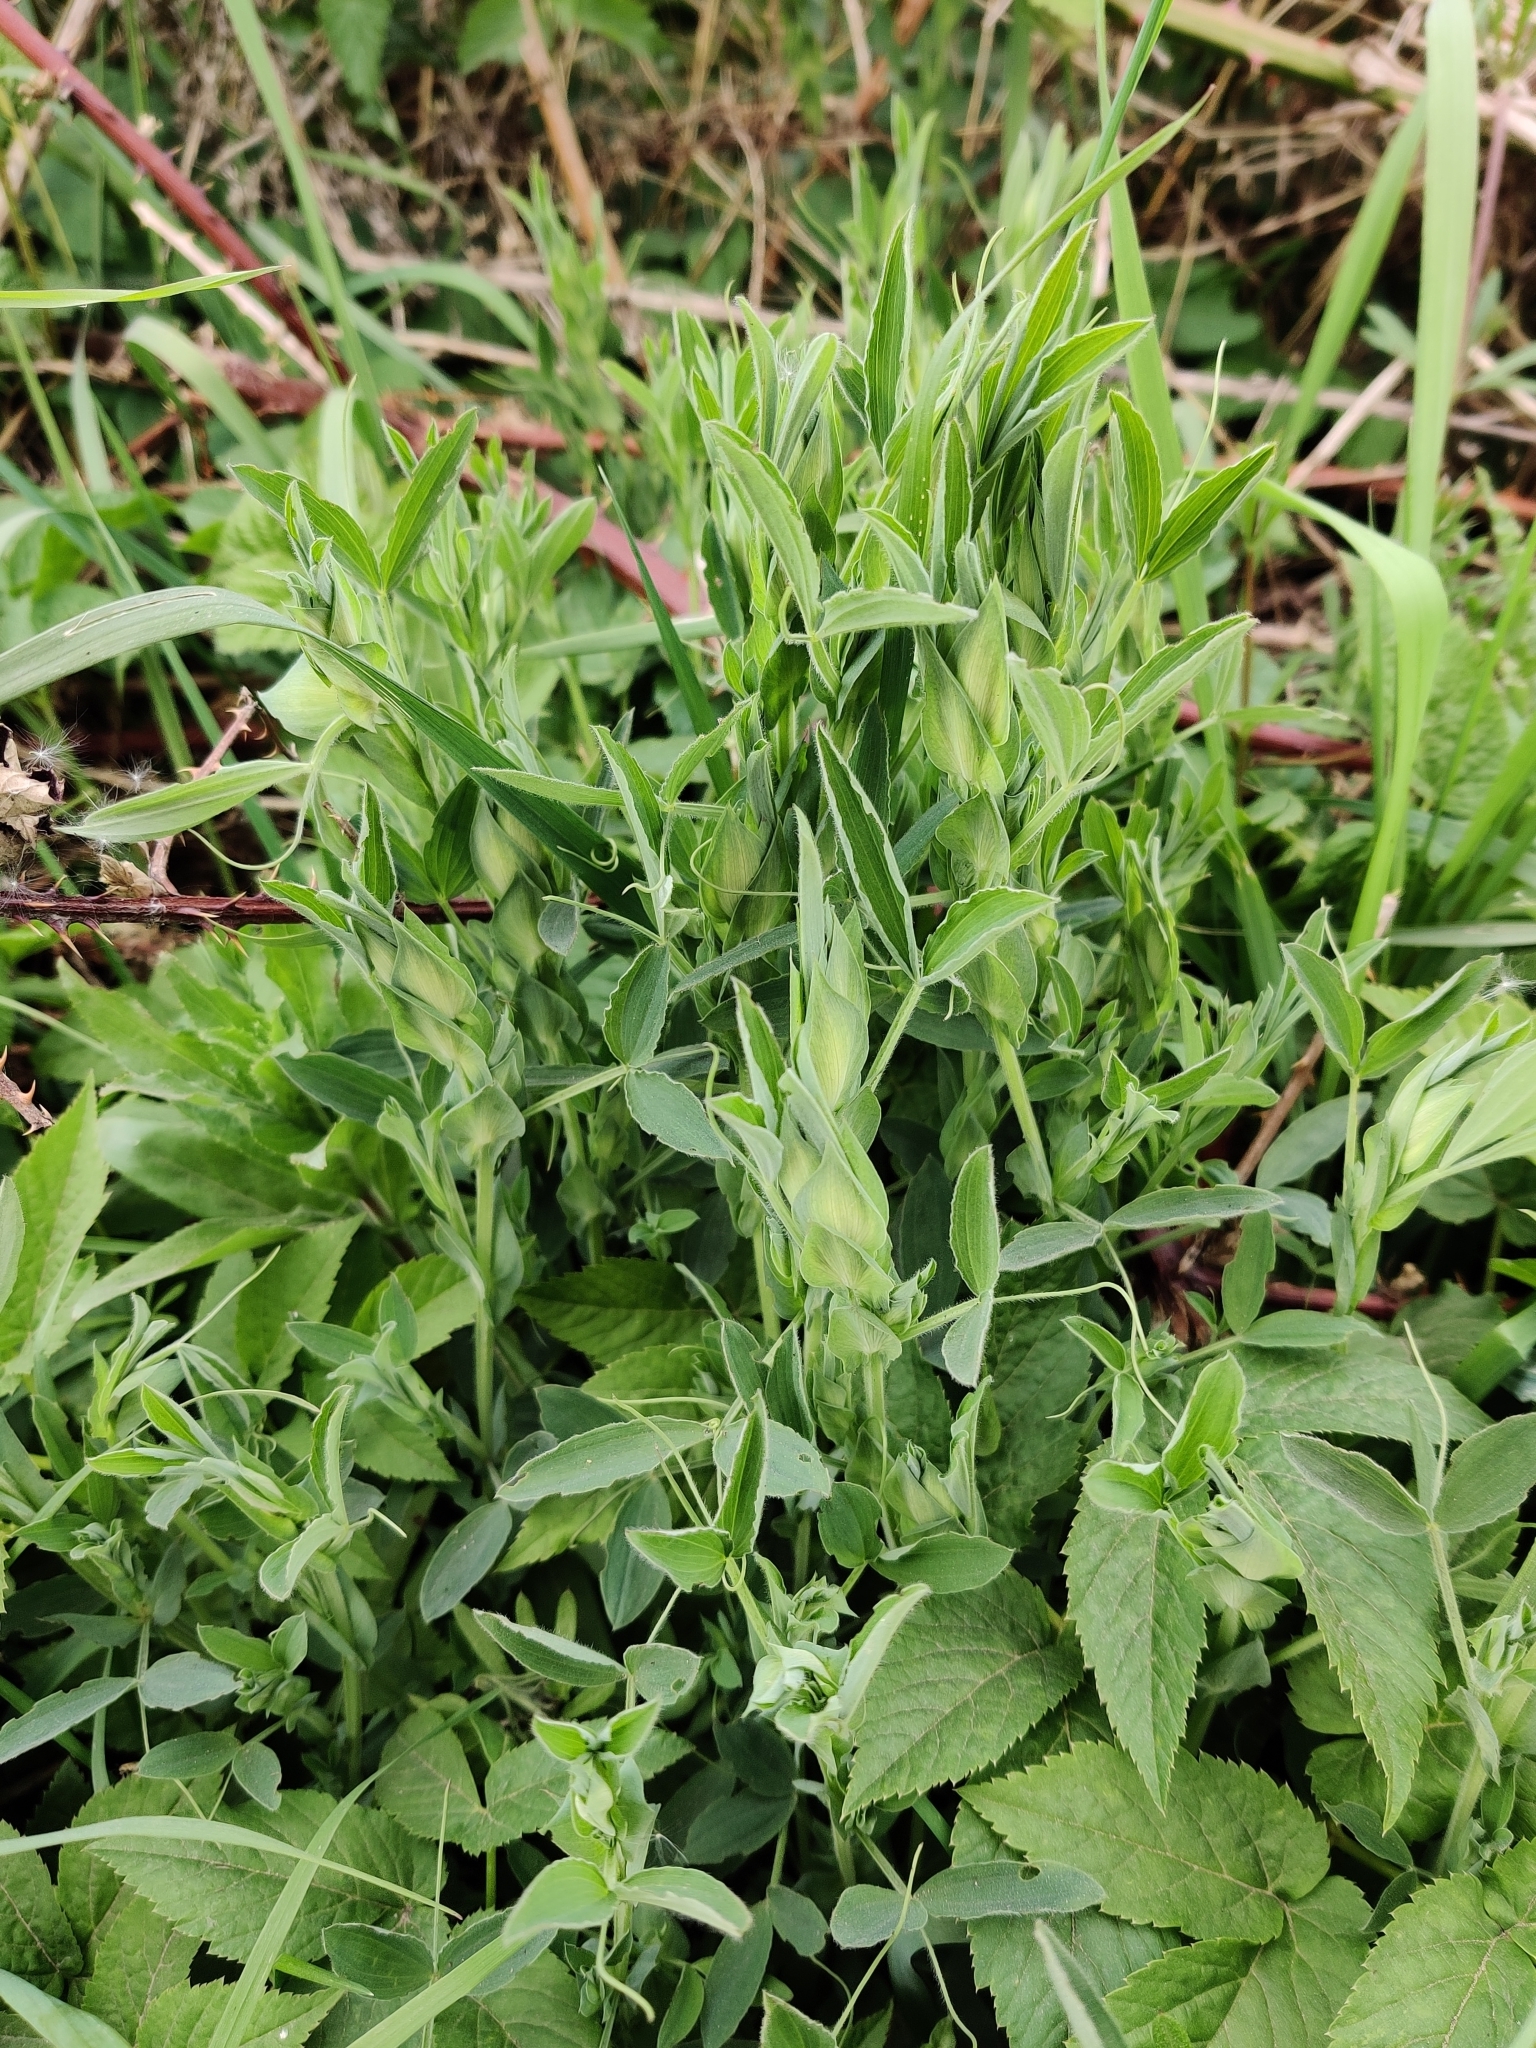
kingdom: Plantae
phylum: Tracheophyta
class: Magnoliopsida
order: Fabales
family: Fabaceae
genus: Lathyrus
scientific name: Lathyrus pratensis
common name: Meadow vetchling
